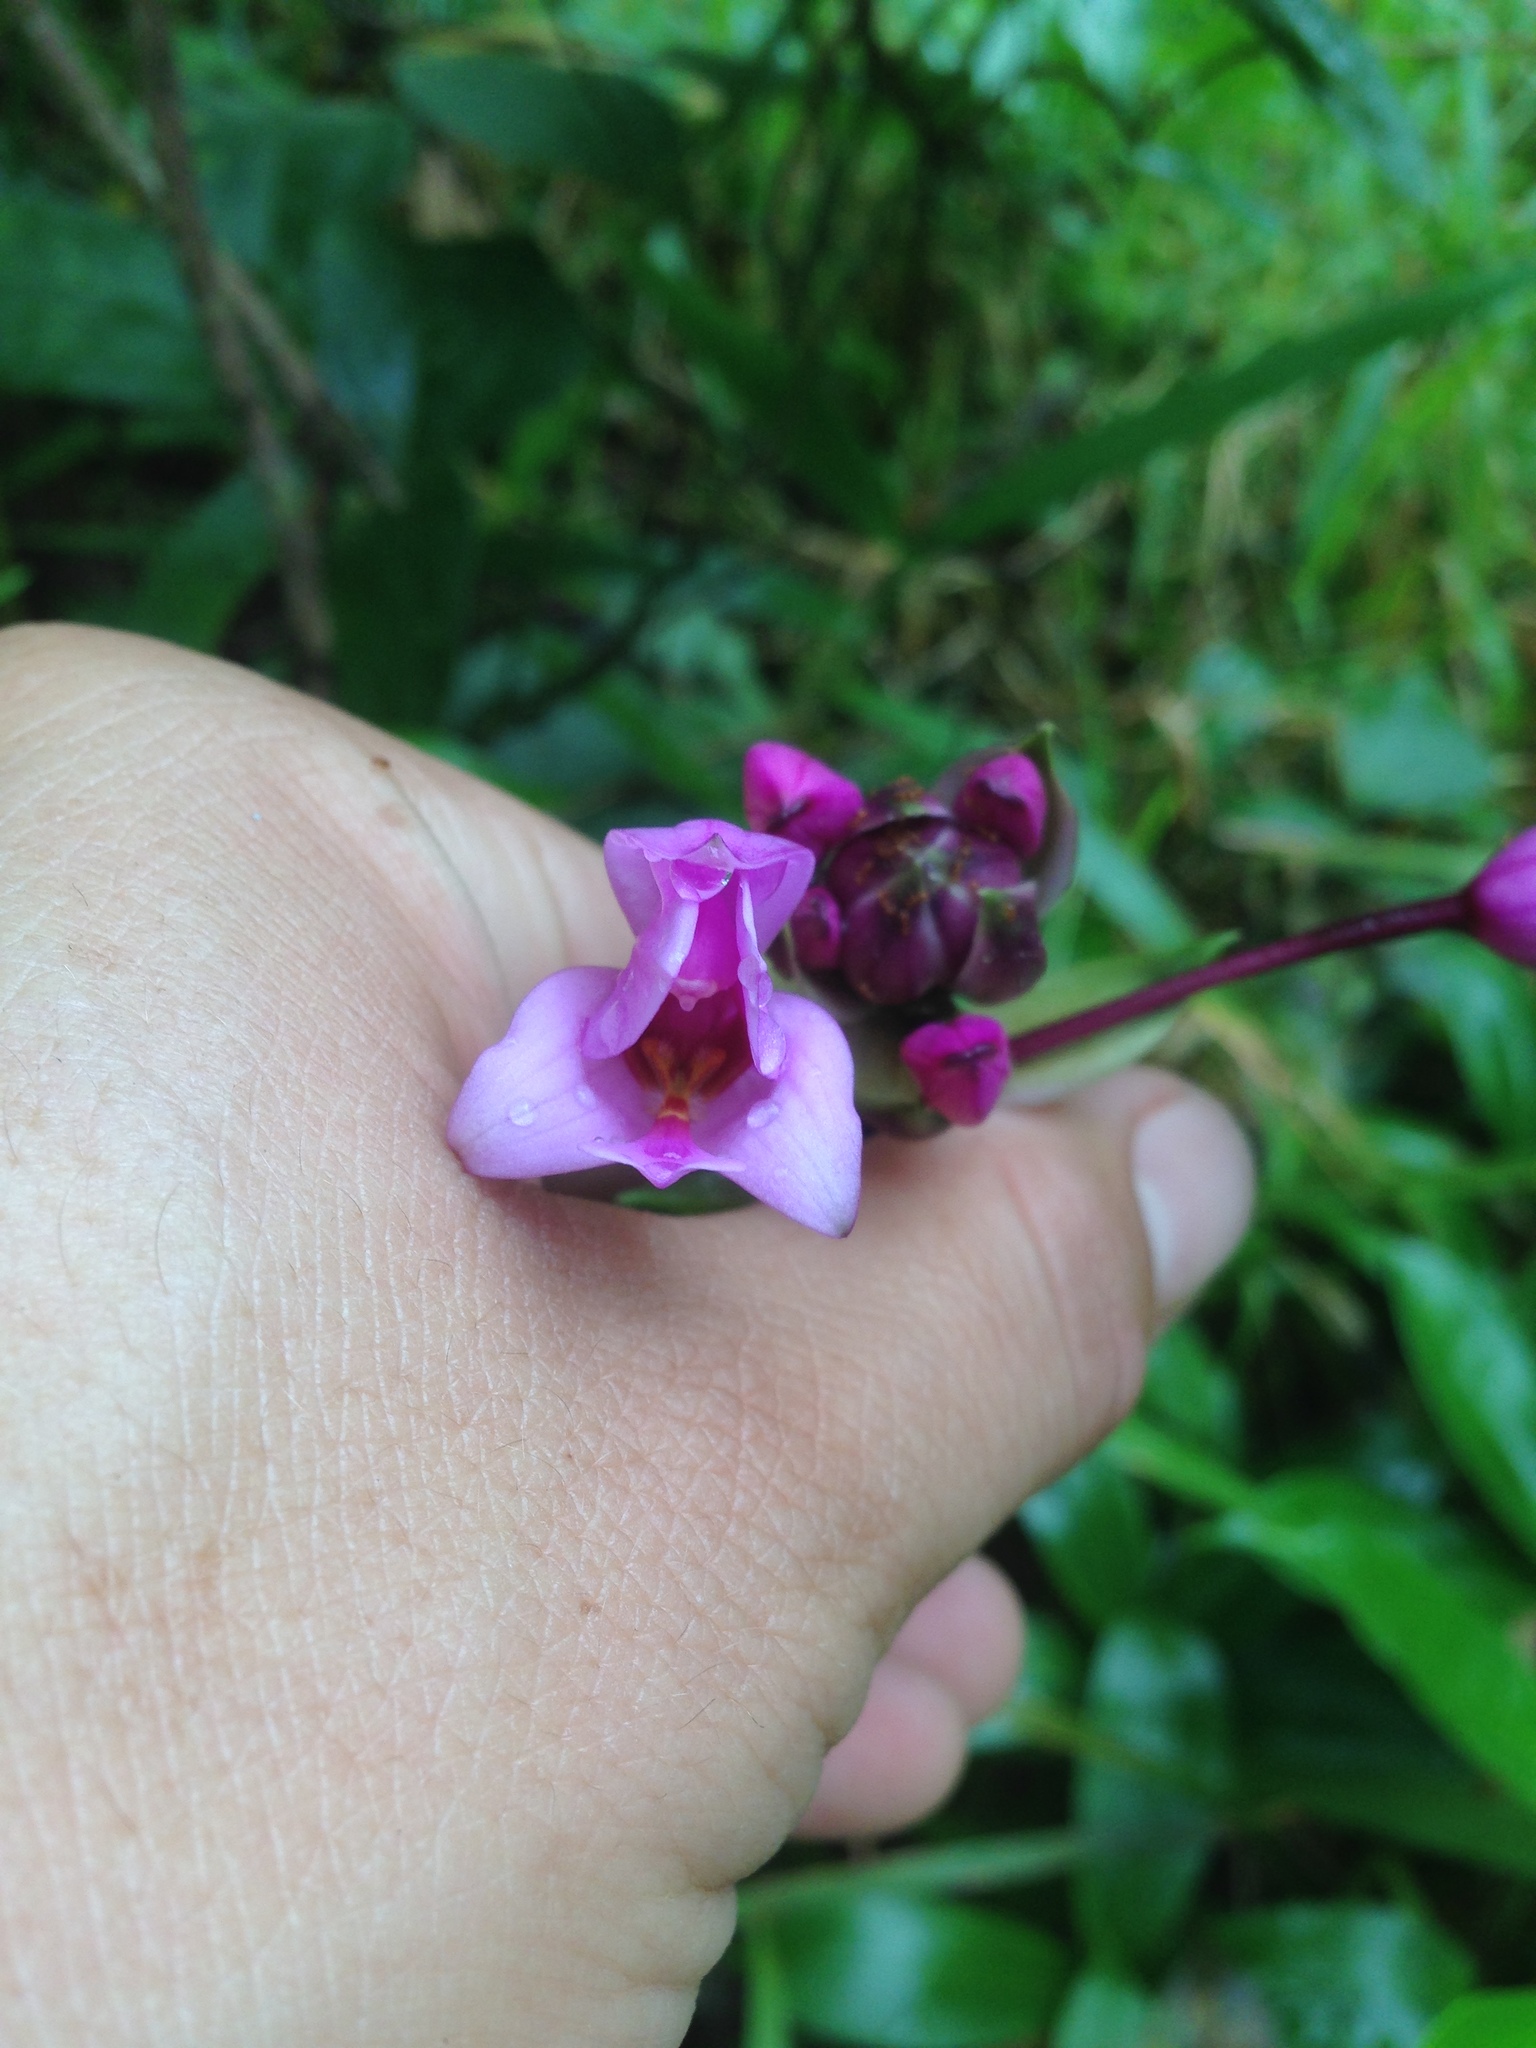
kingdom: Plantae
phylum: Tracheophyta
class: Liliopsida
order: Asparagales
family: Orchidaceae
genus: Spathoglottis
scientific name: Spathoglottis plicata
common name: Philippine ground orchid
